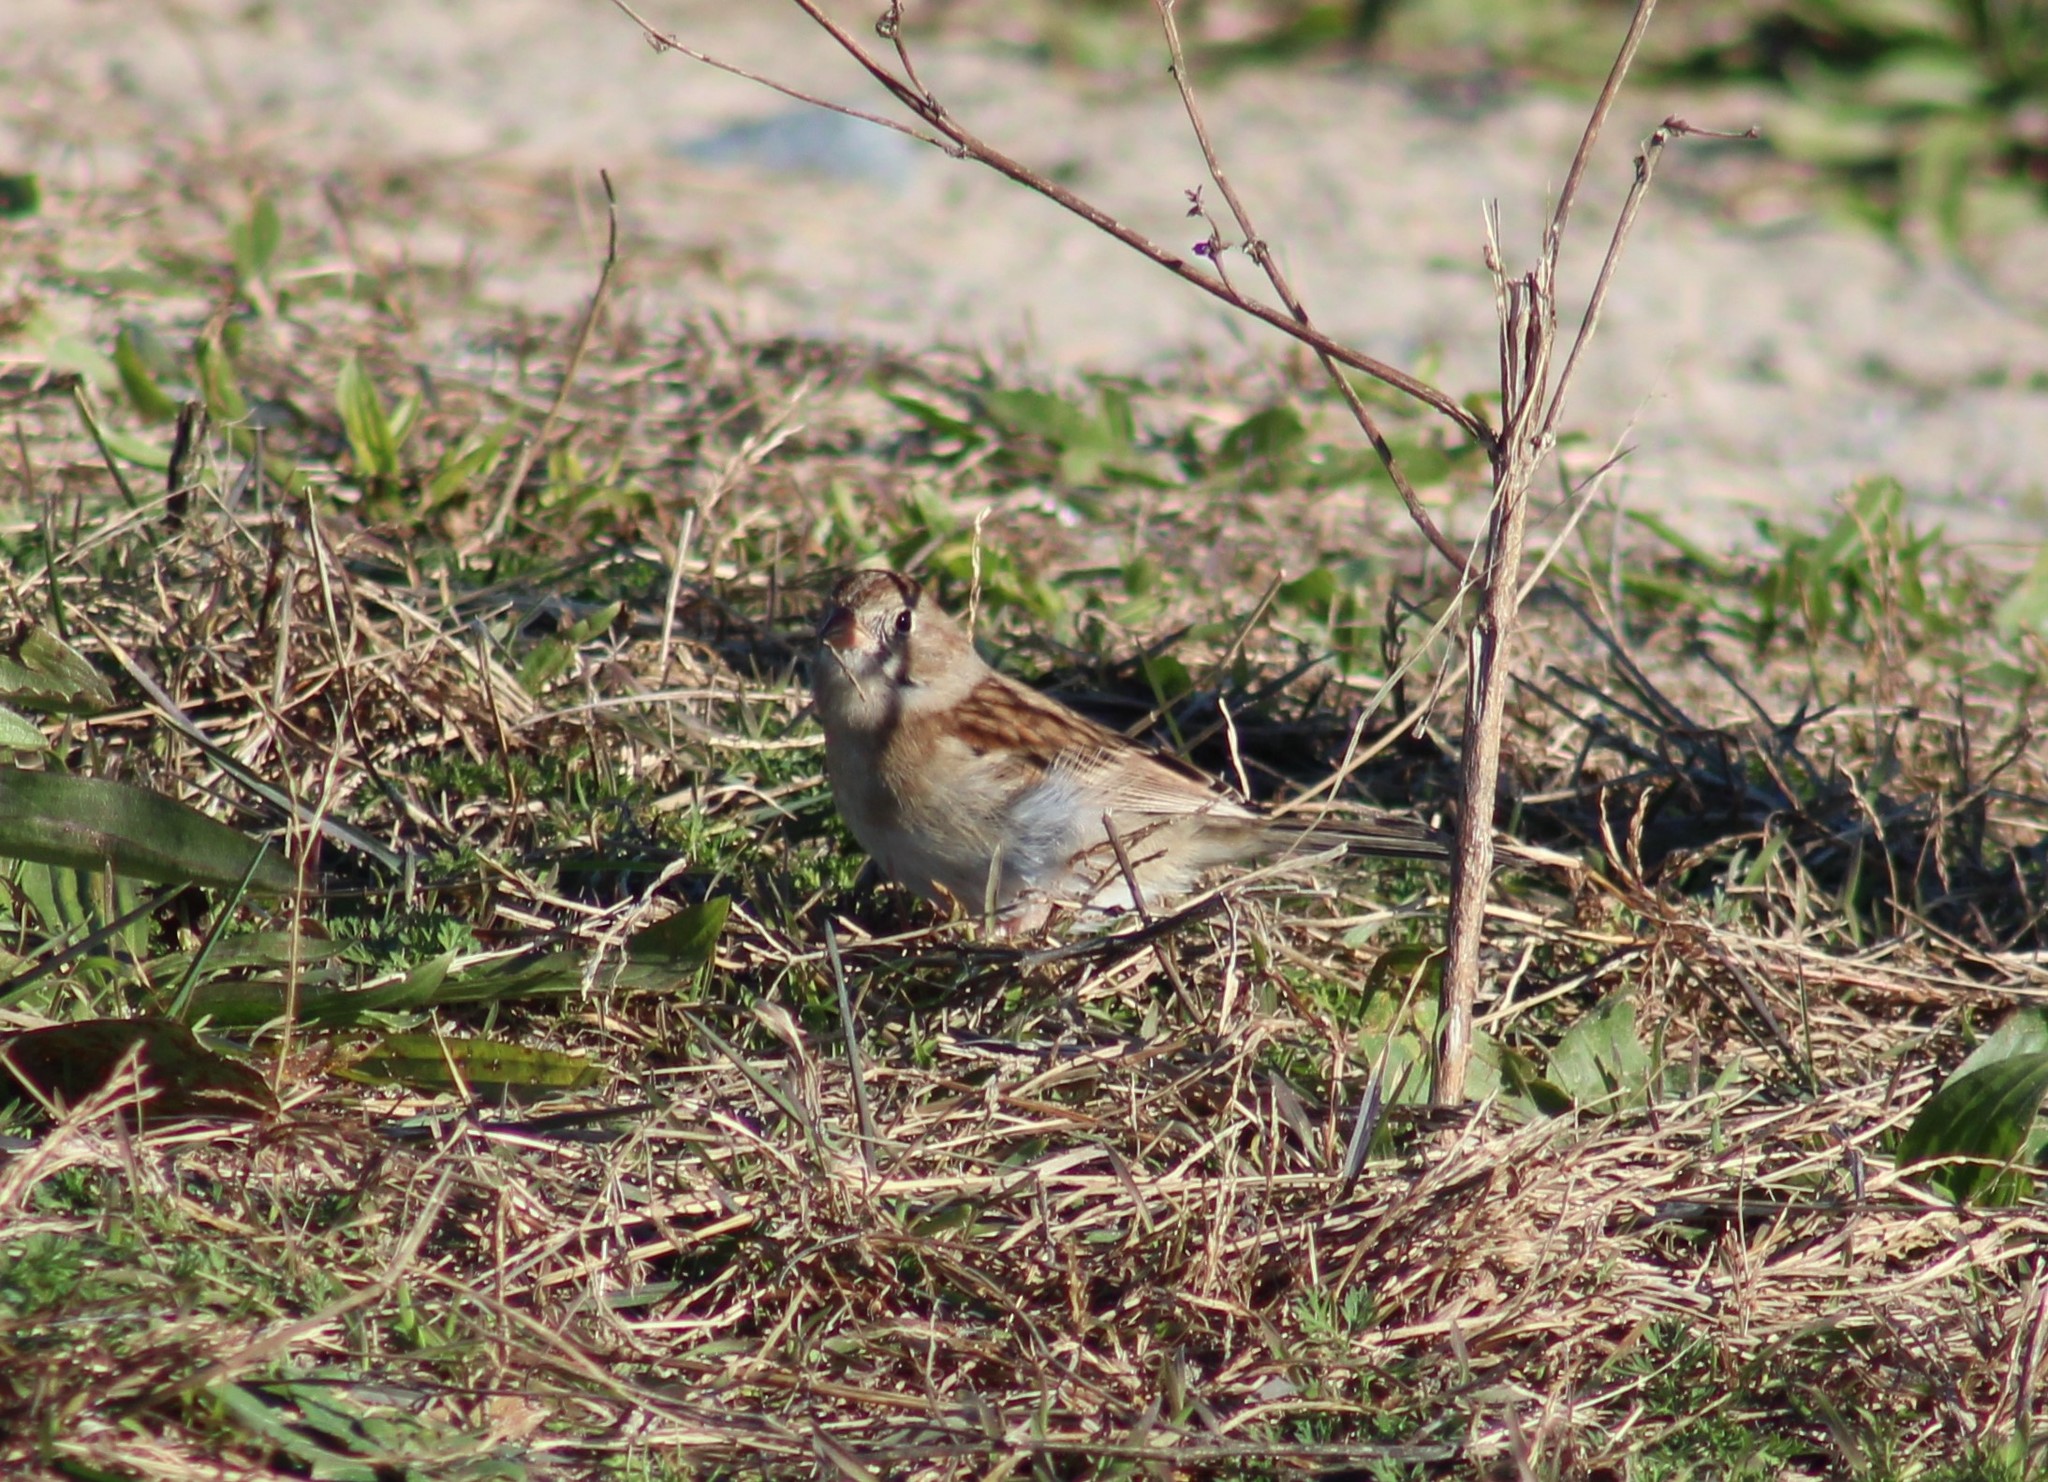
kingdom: Animalia
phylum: Chordata
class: Aves
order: Passeriformes
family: Passerellidae
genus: Spizella
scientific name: Spizella pusilla
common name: Field sparrow
